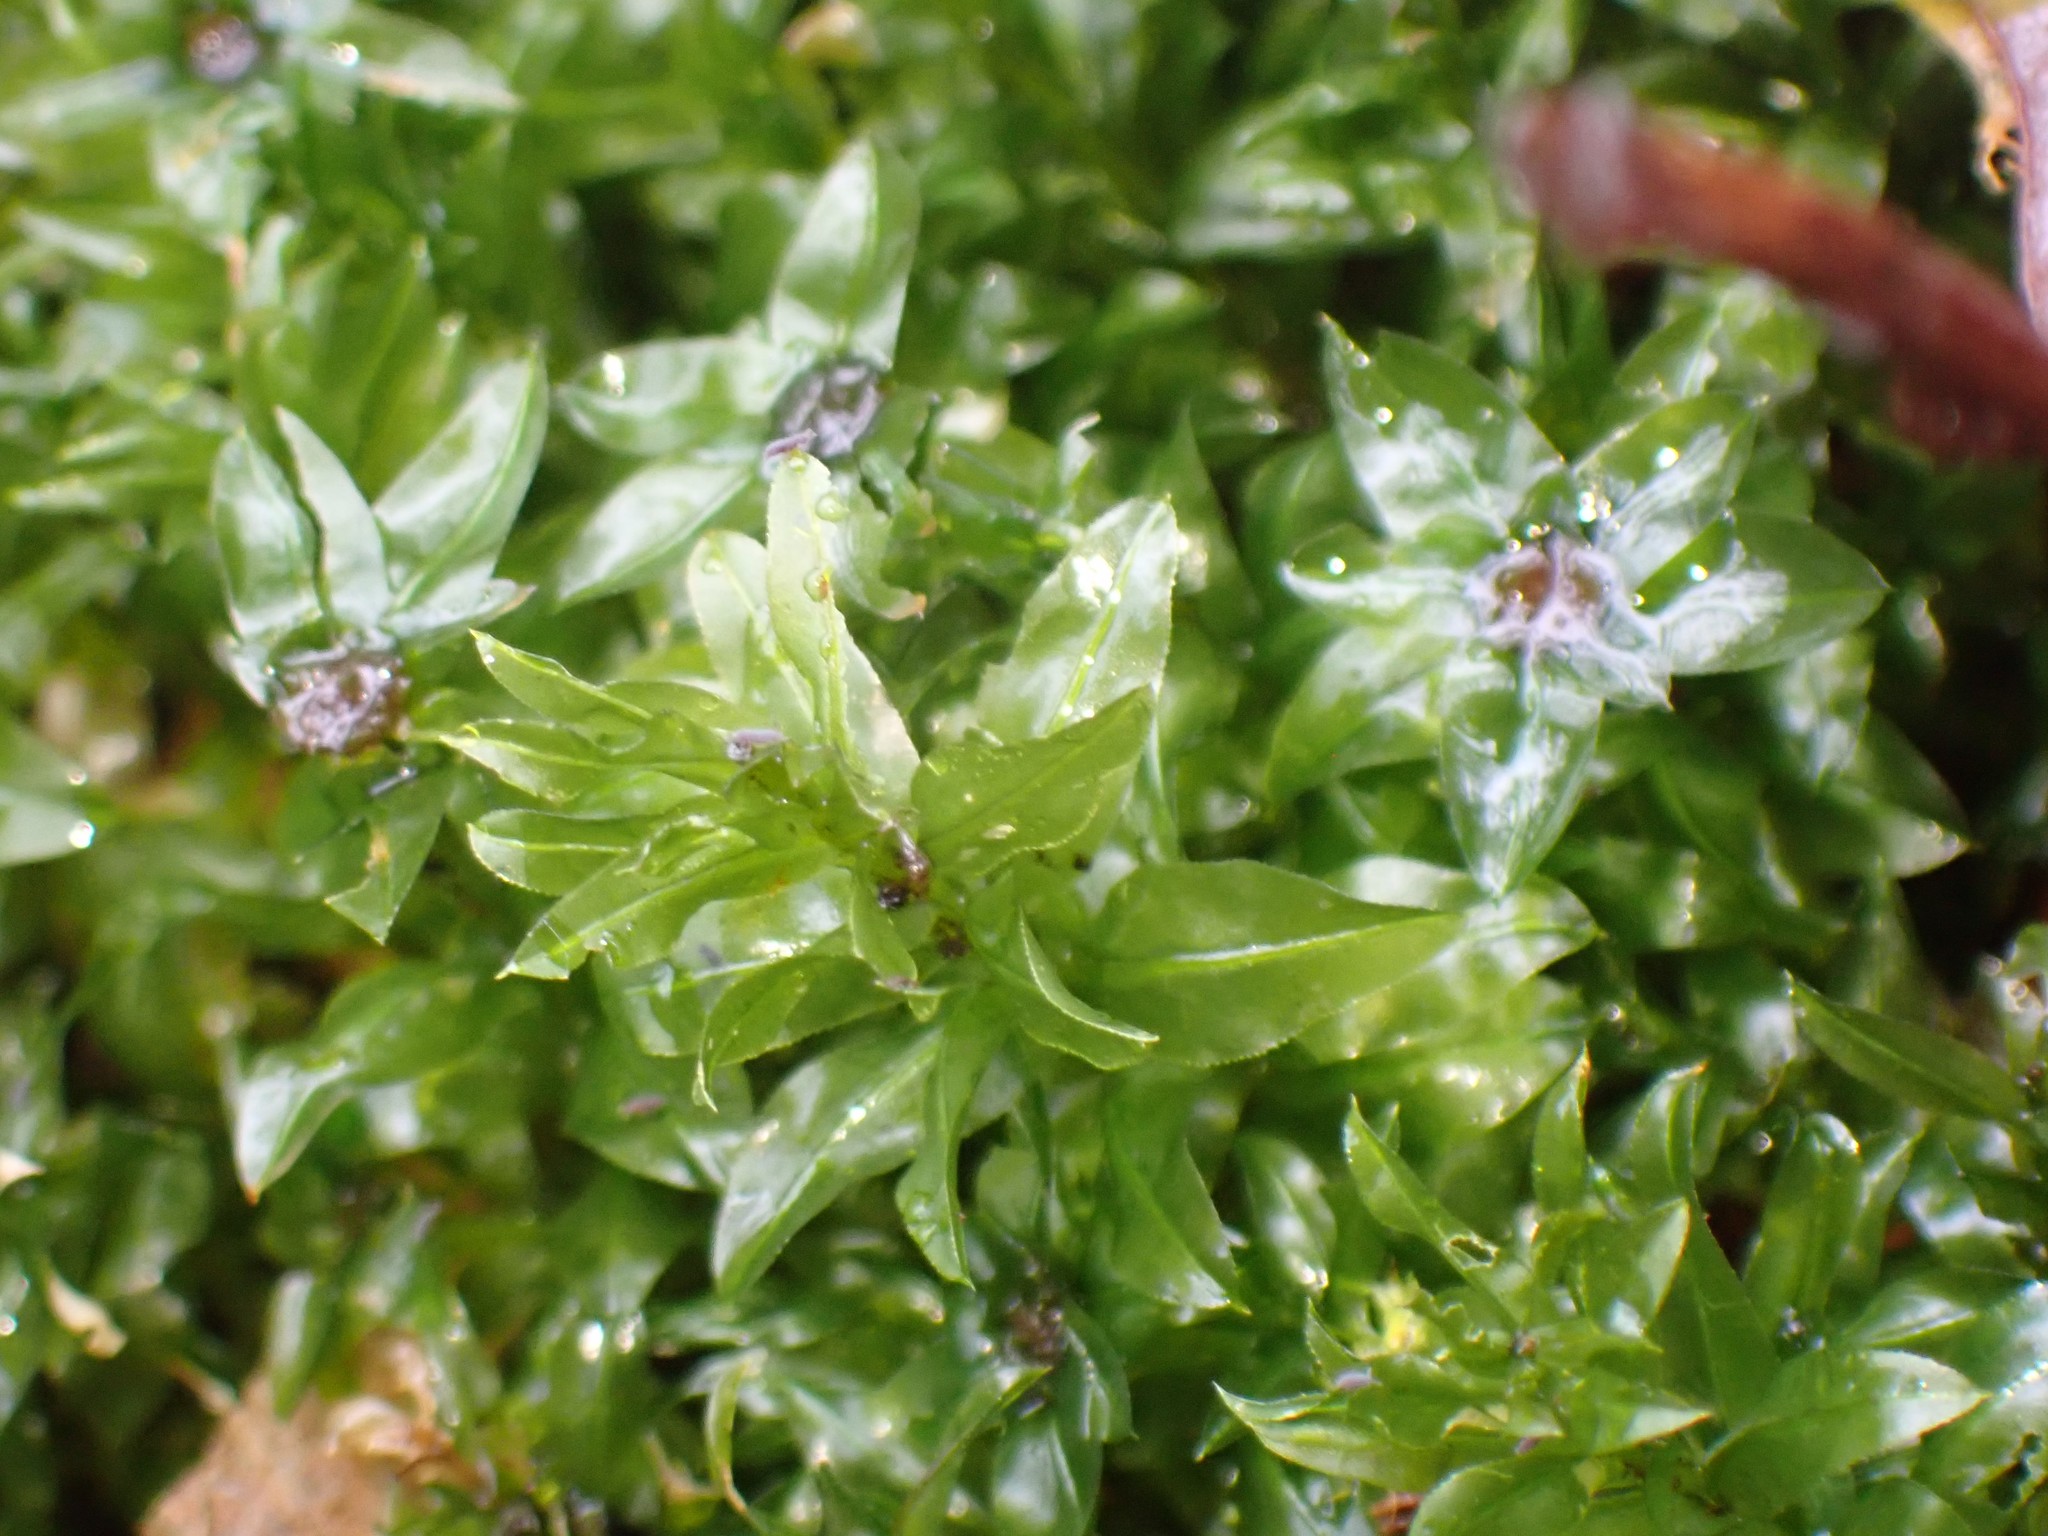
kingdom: Plantae
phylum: Bryophyta
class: Bryopsida
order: Bryales
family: Mniaceae
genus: Plagiomnium
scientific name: Plagiomnium insigne
